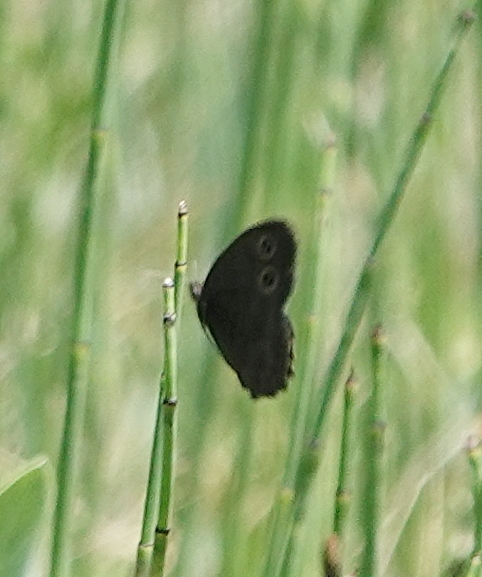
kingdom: Animalia
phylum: Arthropoda
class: Insecta
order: Lepidoptera
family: Nymphalidae
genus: Cercyonis
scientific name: Cercyonis pegala
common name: Common wood-nymph
